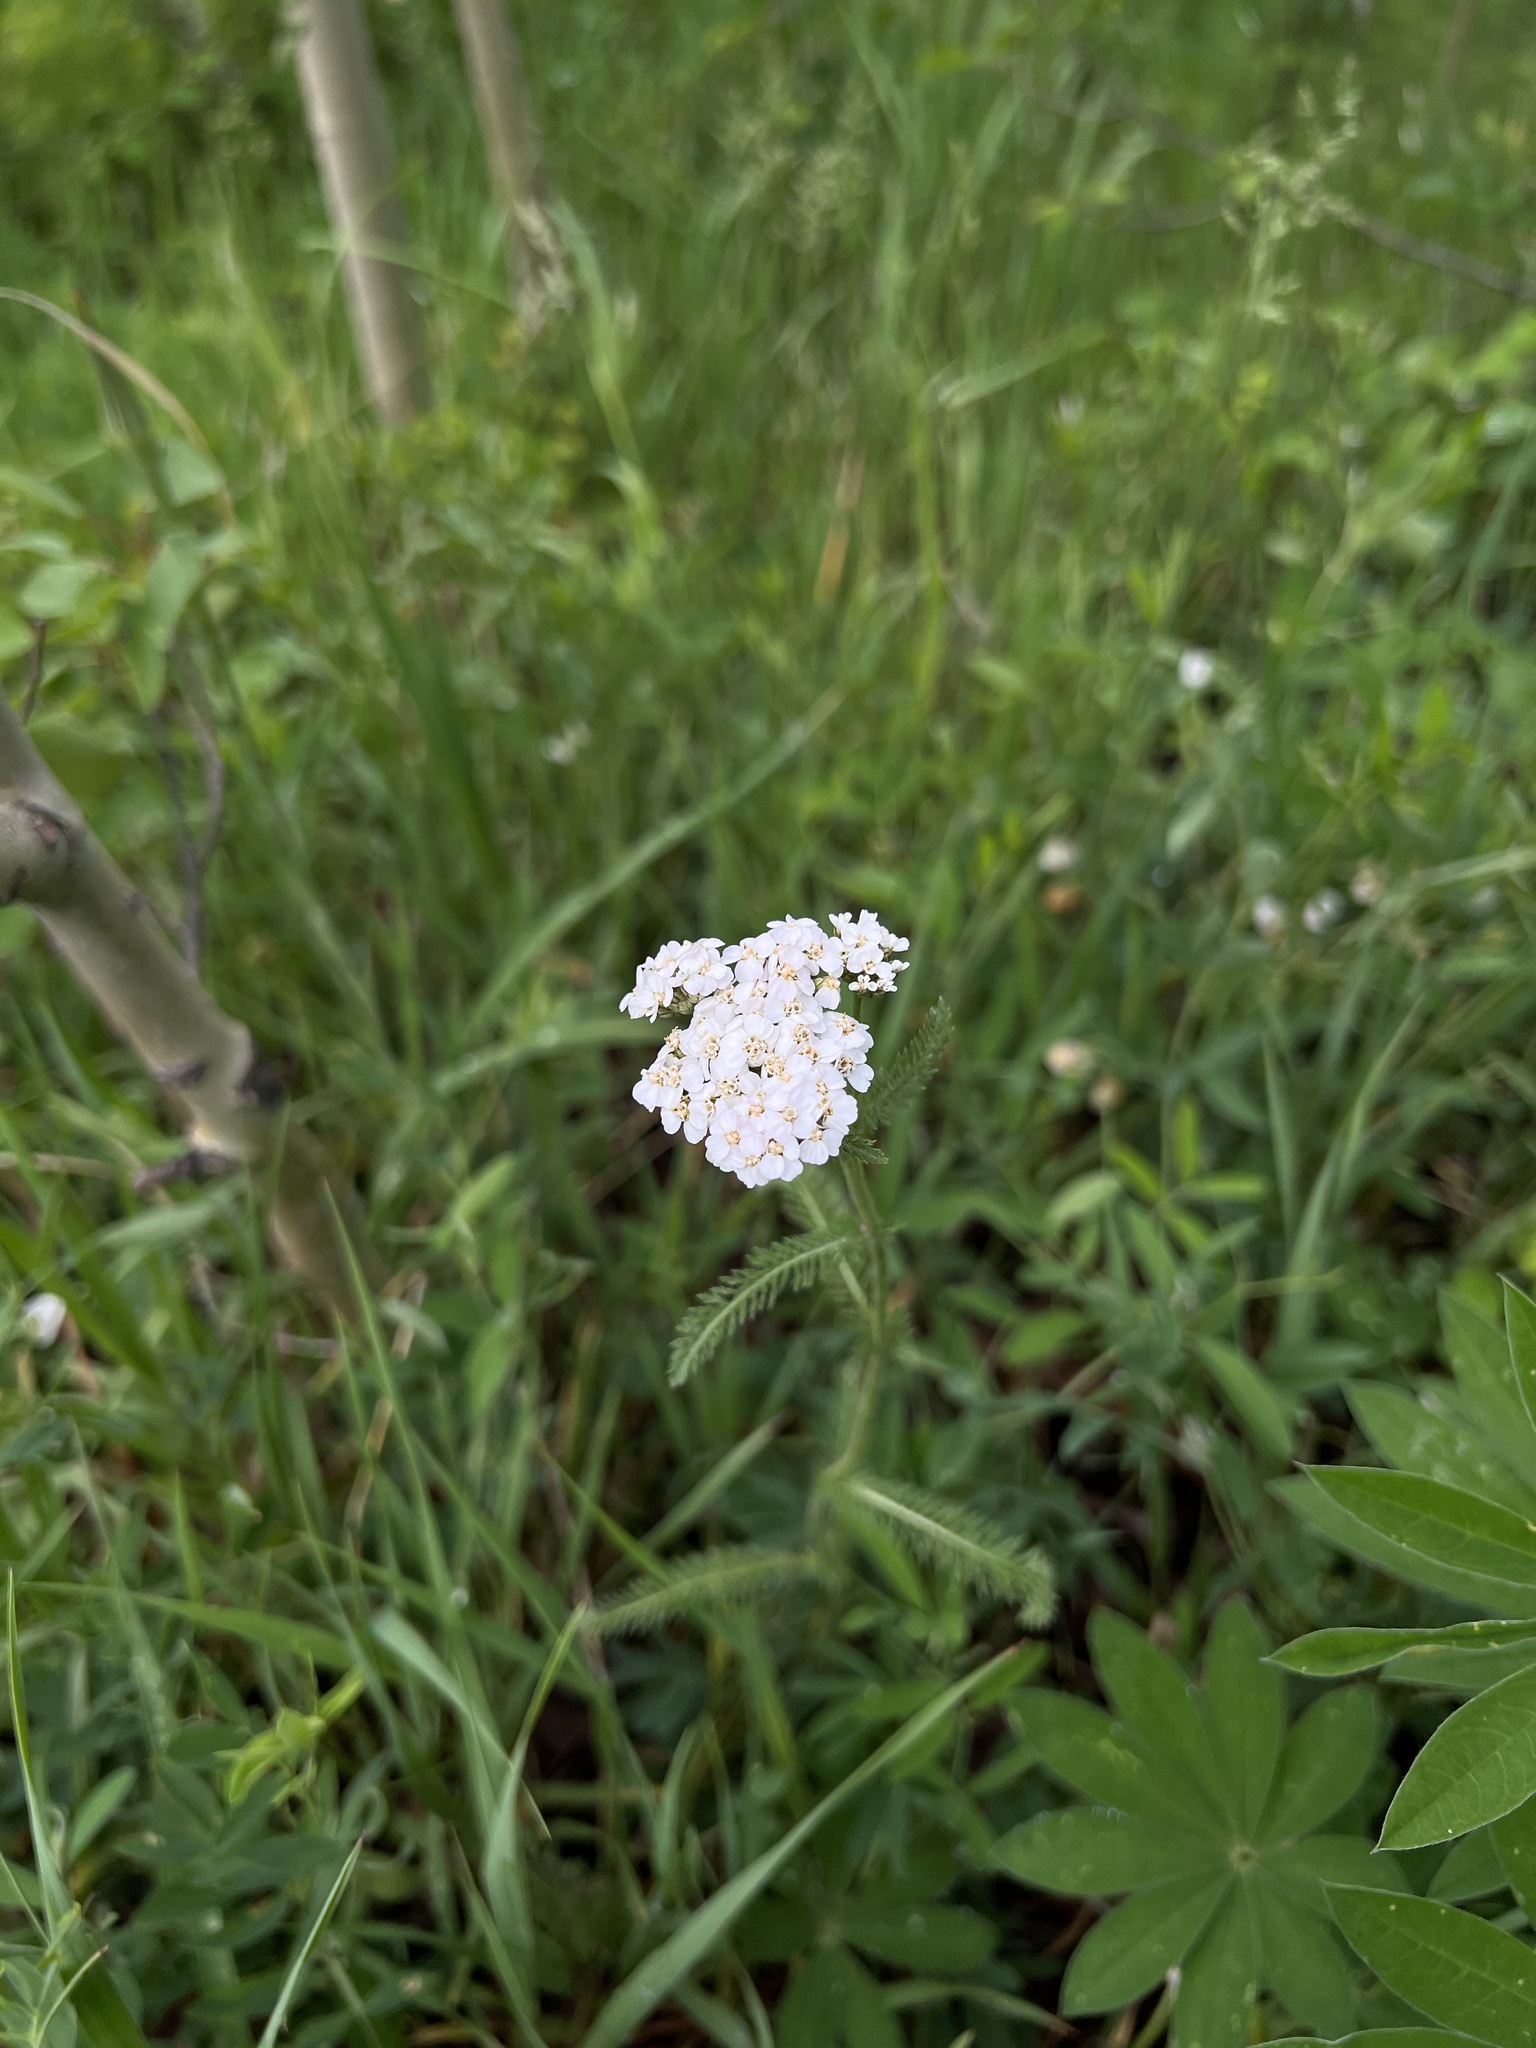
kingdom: Plantae
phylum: Tracheophyta
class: Magnoliopsida
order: Asterales
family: Asteraceae
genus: Achillea
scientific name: Achillea millefolium
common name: Yarrow
